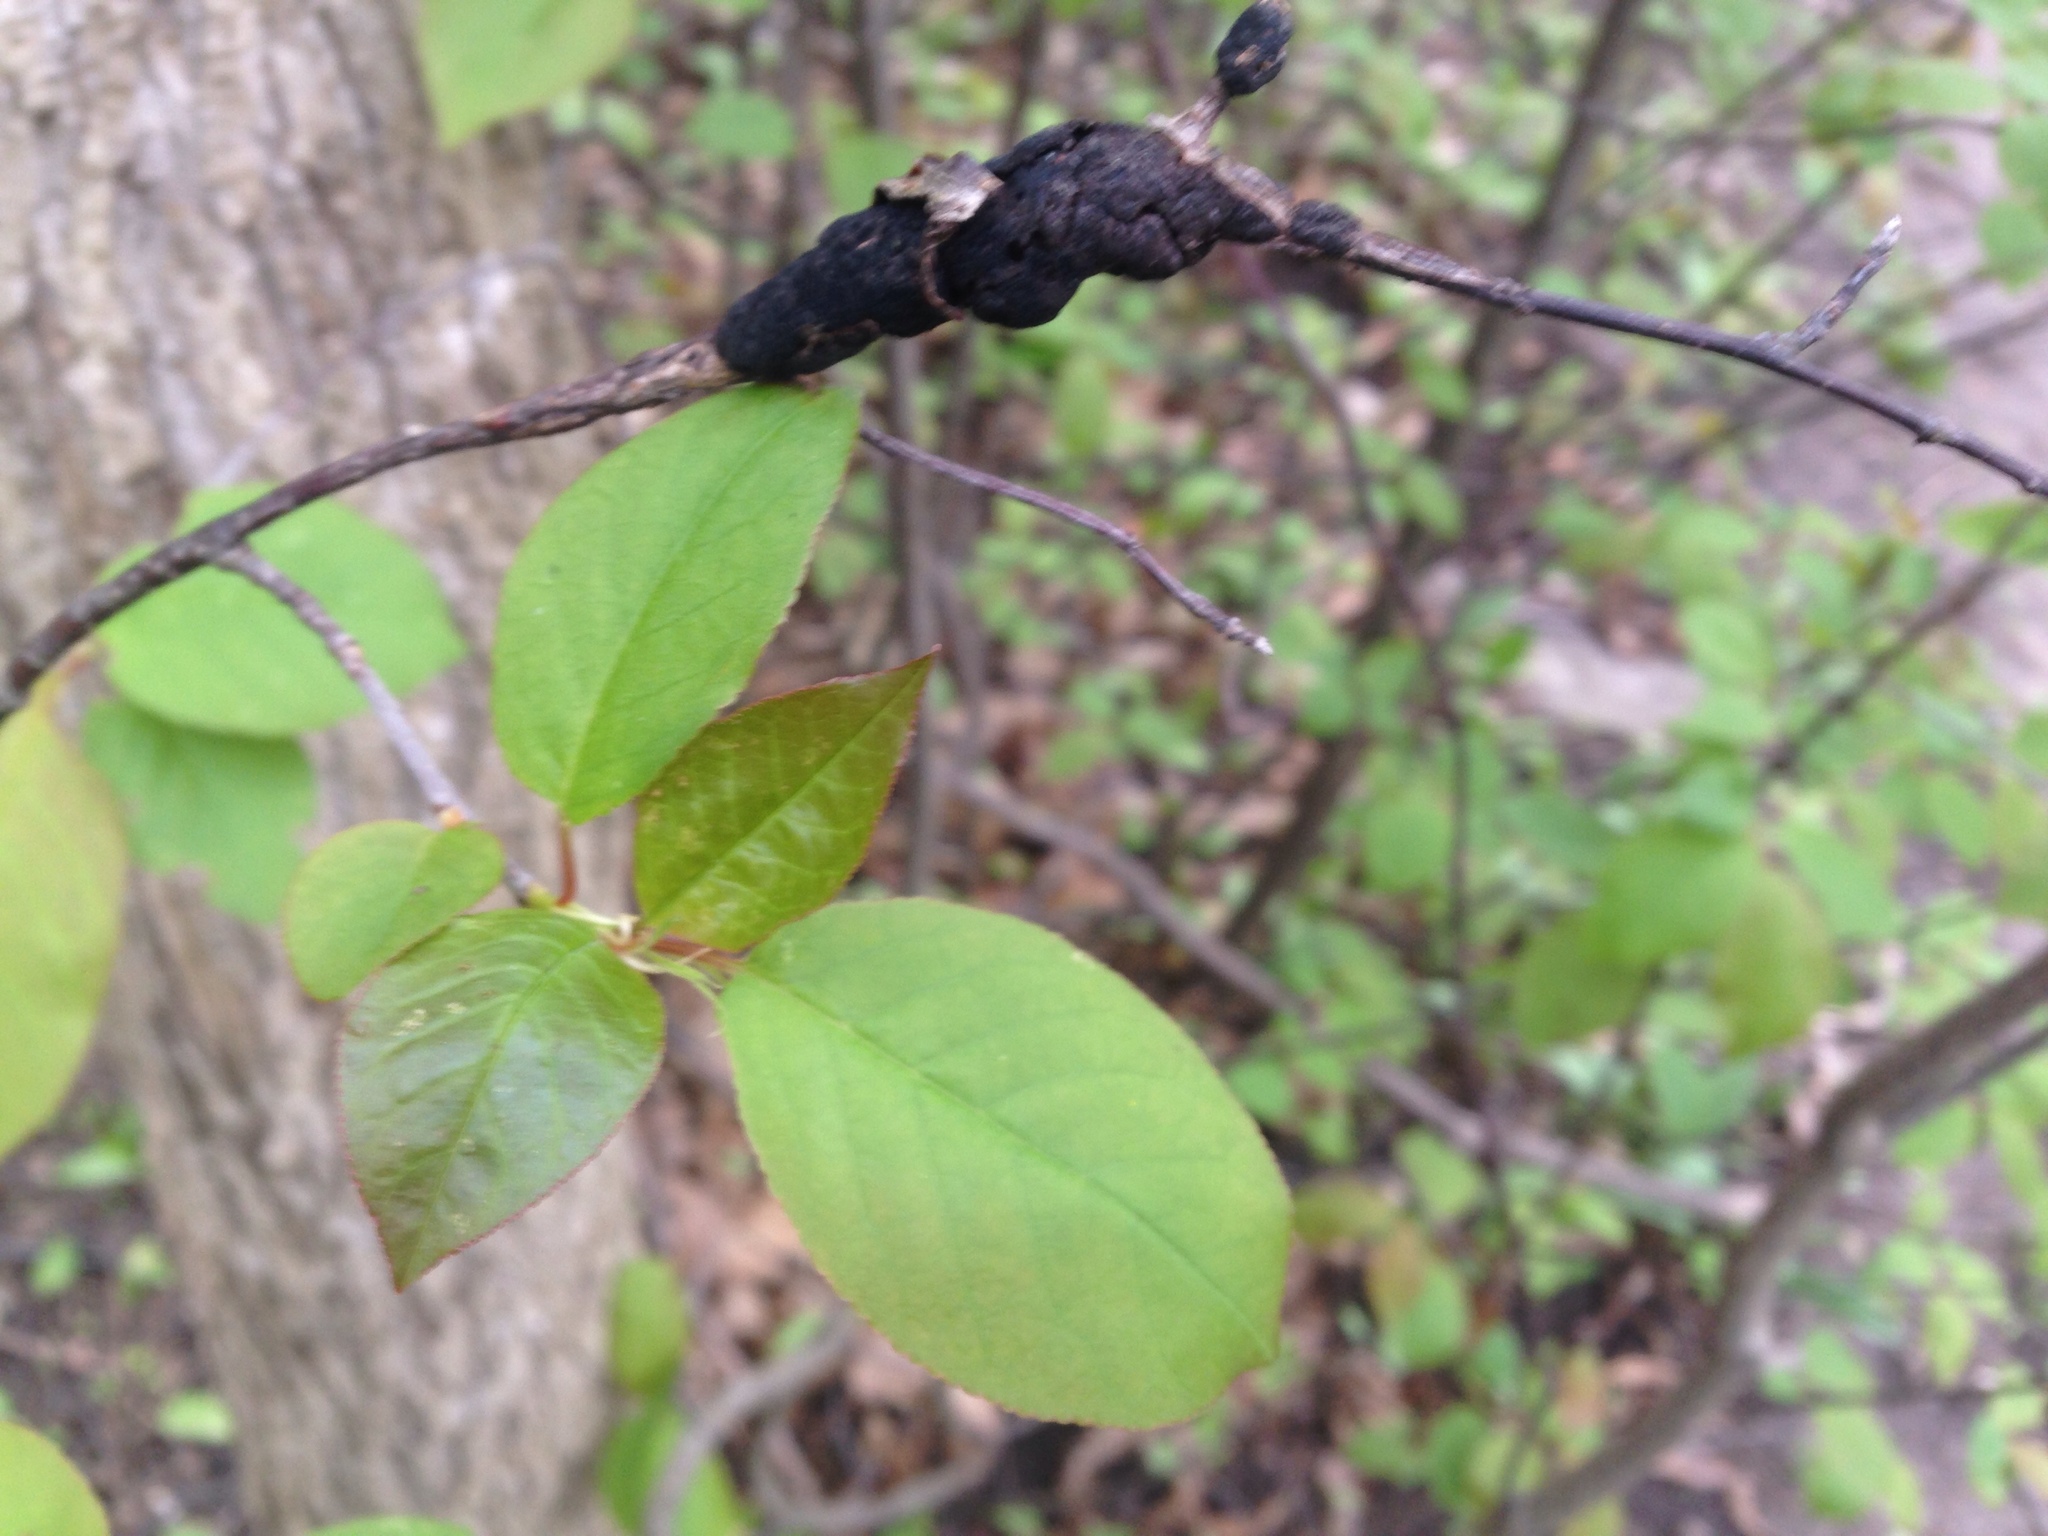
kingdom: Fungi
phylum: Ascomycota
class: Dothideomycetes
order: Venturiales
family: Venturiaceae
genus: Apiosporina
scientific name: Apiosporina morbosa
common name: Black knot
